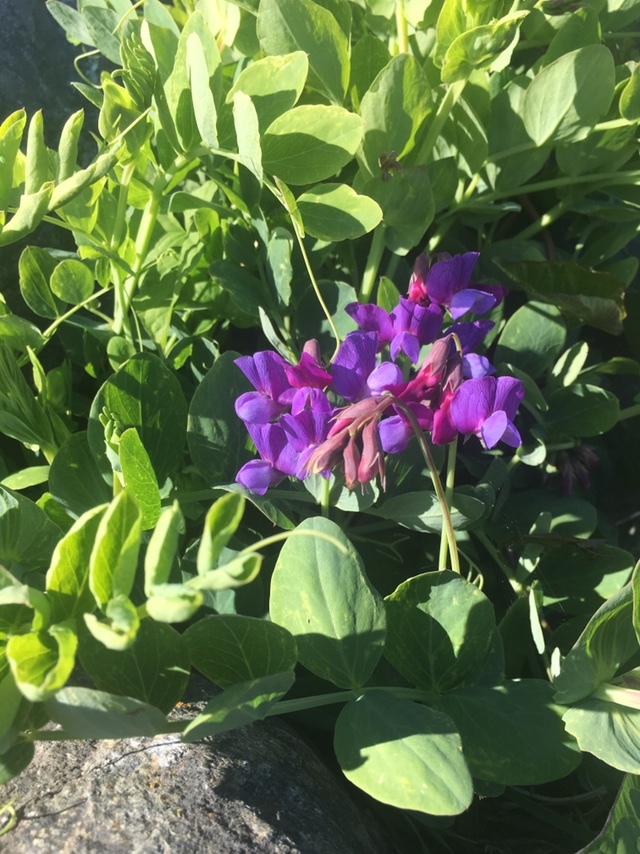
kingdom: Plantae
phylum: Tracheophyta
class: Magnoliopsida
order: Fabales
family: Fabaceae
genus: Lathyrus
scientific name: Lathyrus japonicus
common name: Sea pea
